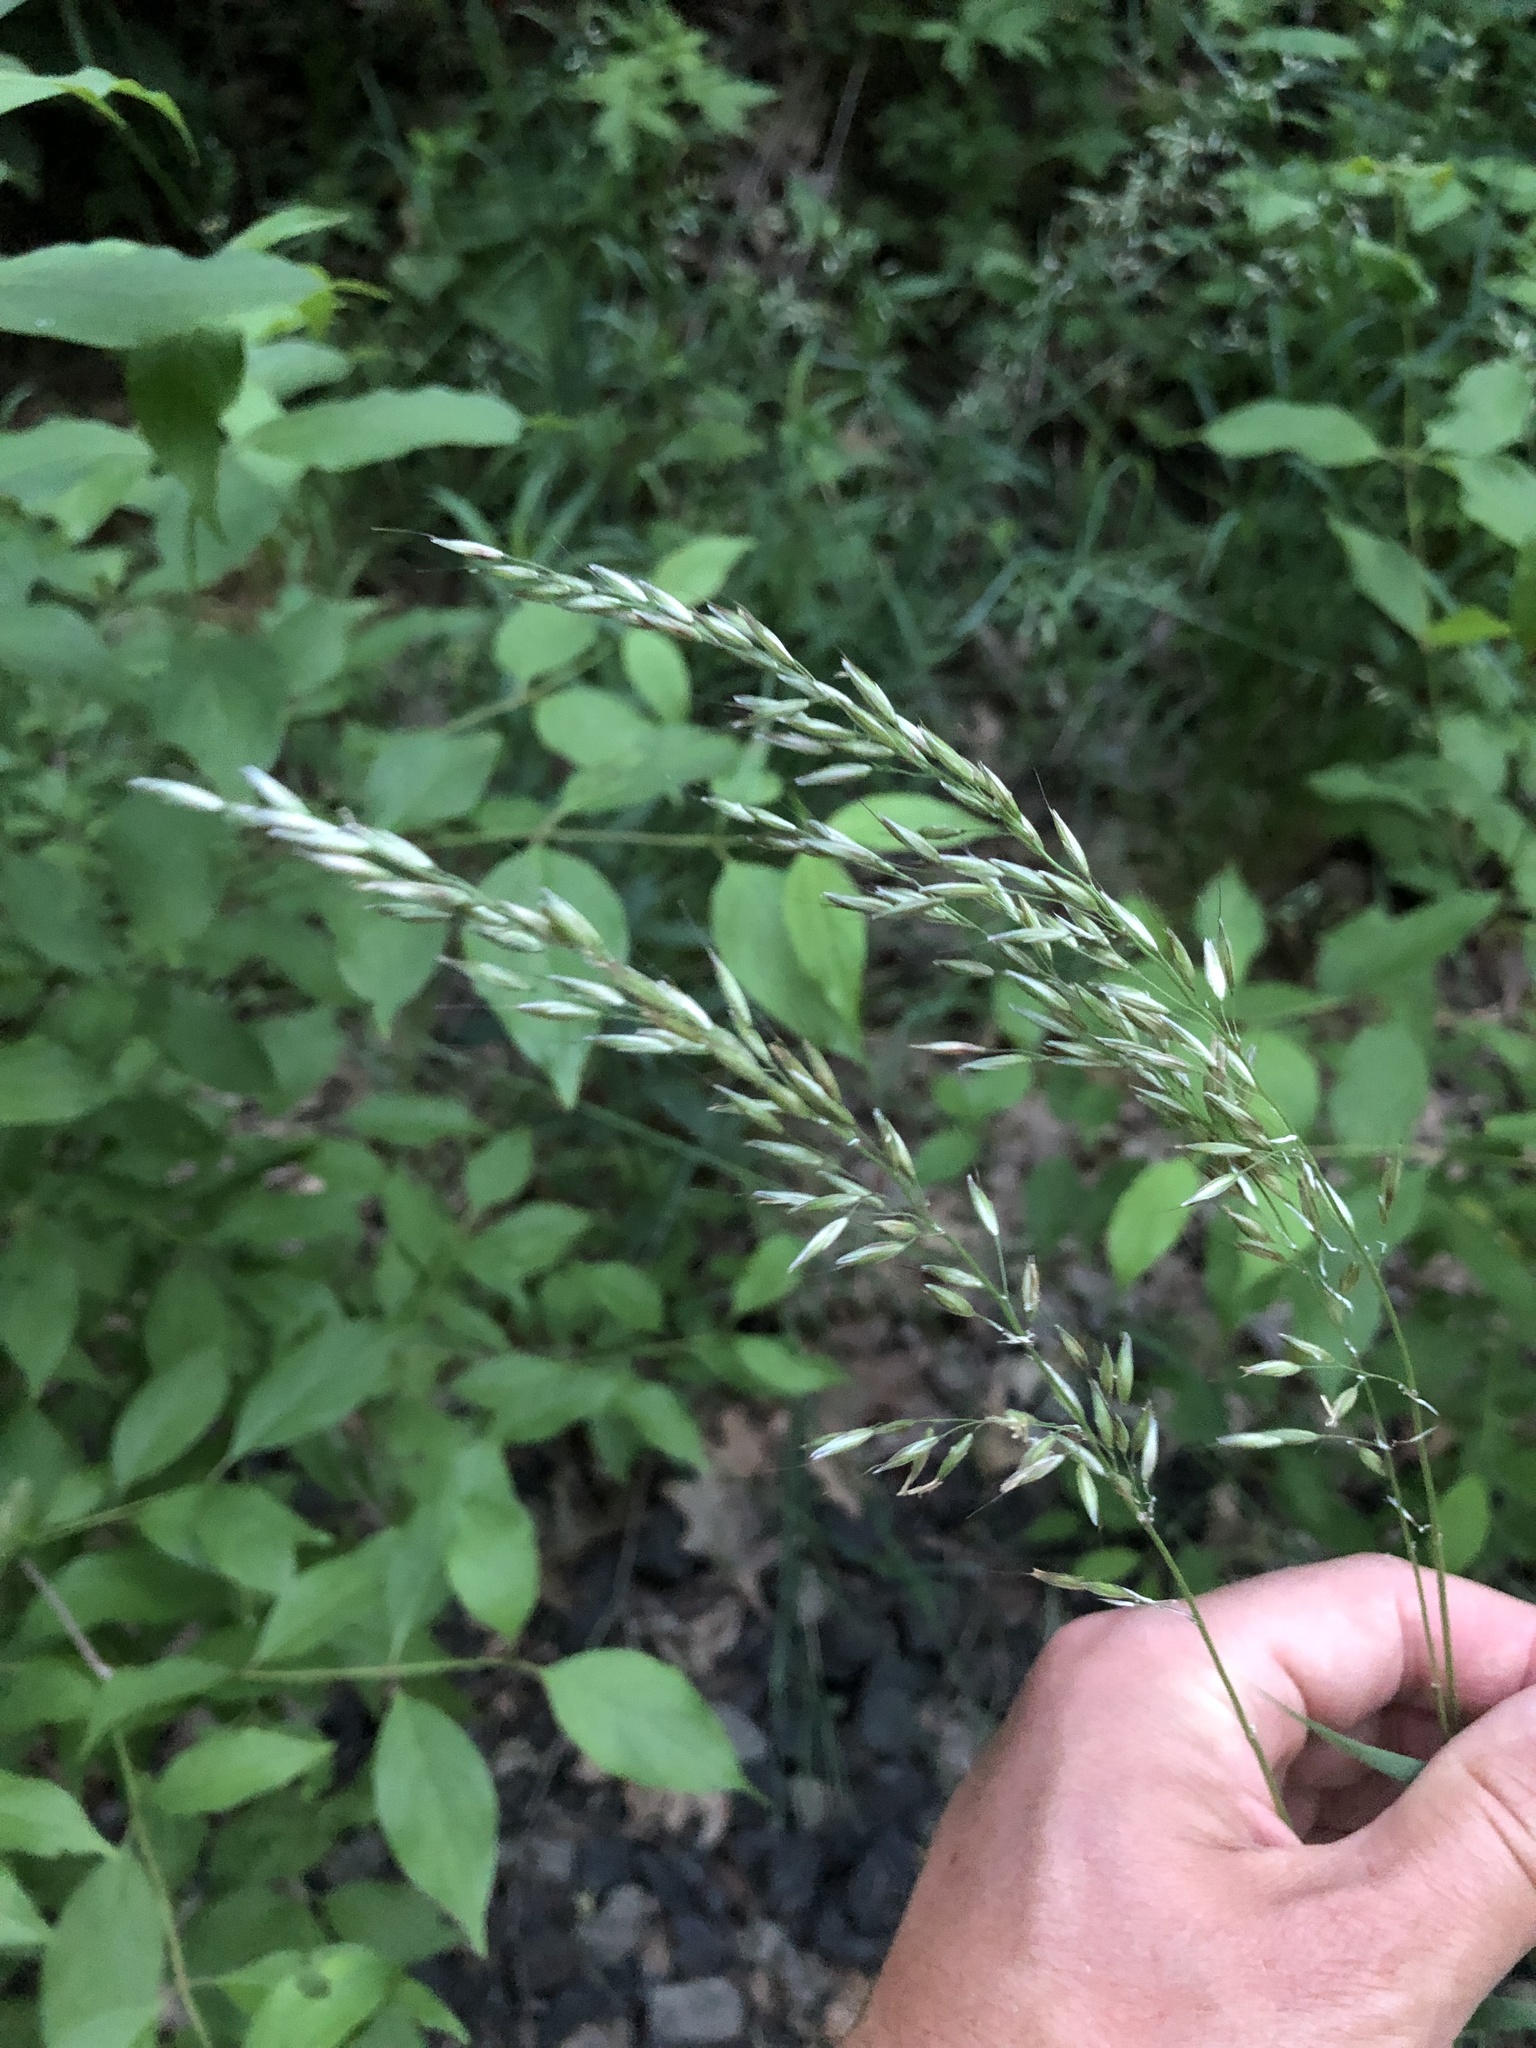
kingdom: Plantae
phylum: Tracheophyta
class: Liliopsida
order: Poales
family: Poaceae
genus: Arrhenatherum
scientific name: Arrhenatherum elatius
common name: Tall oatgrass
